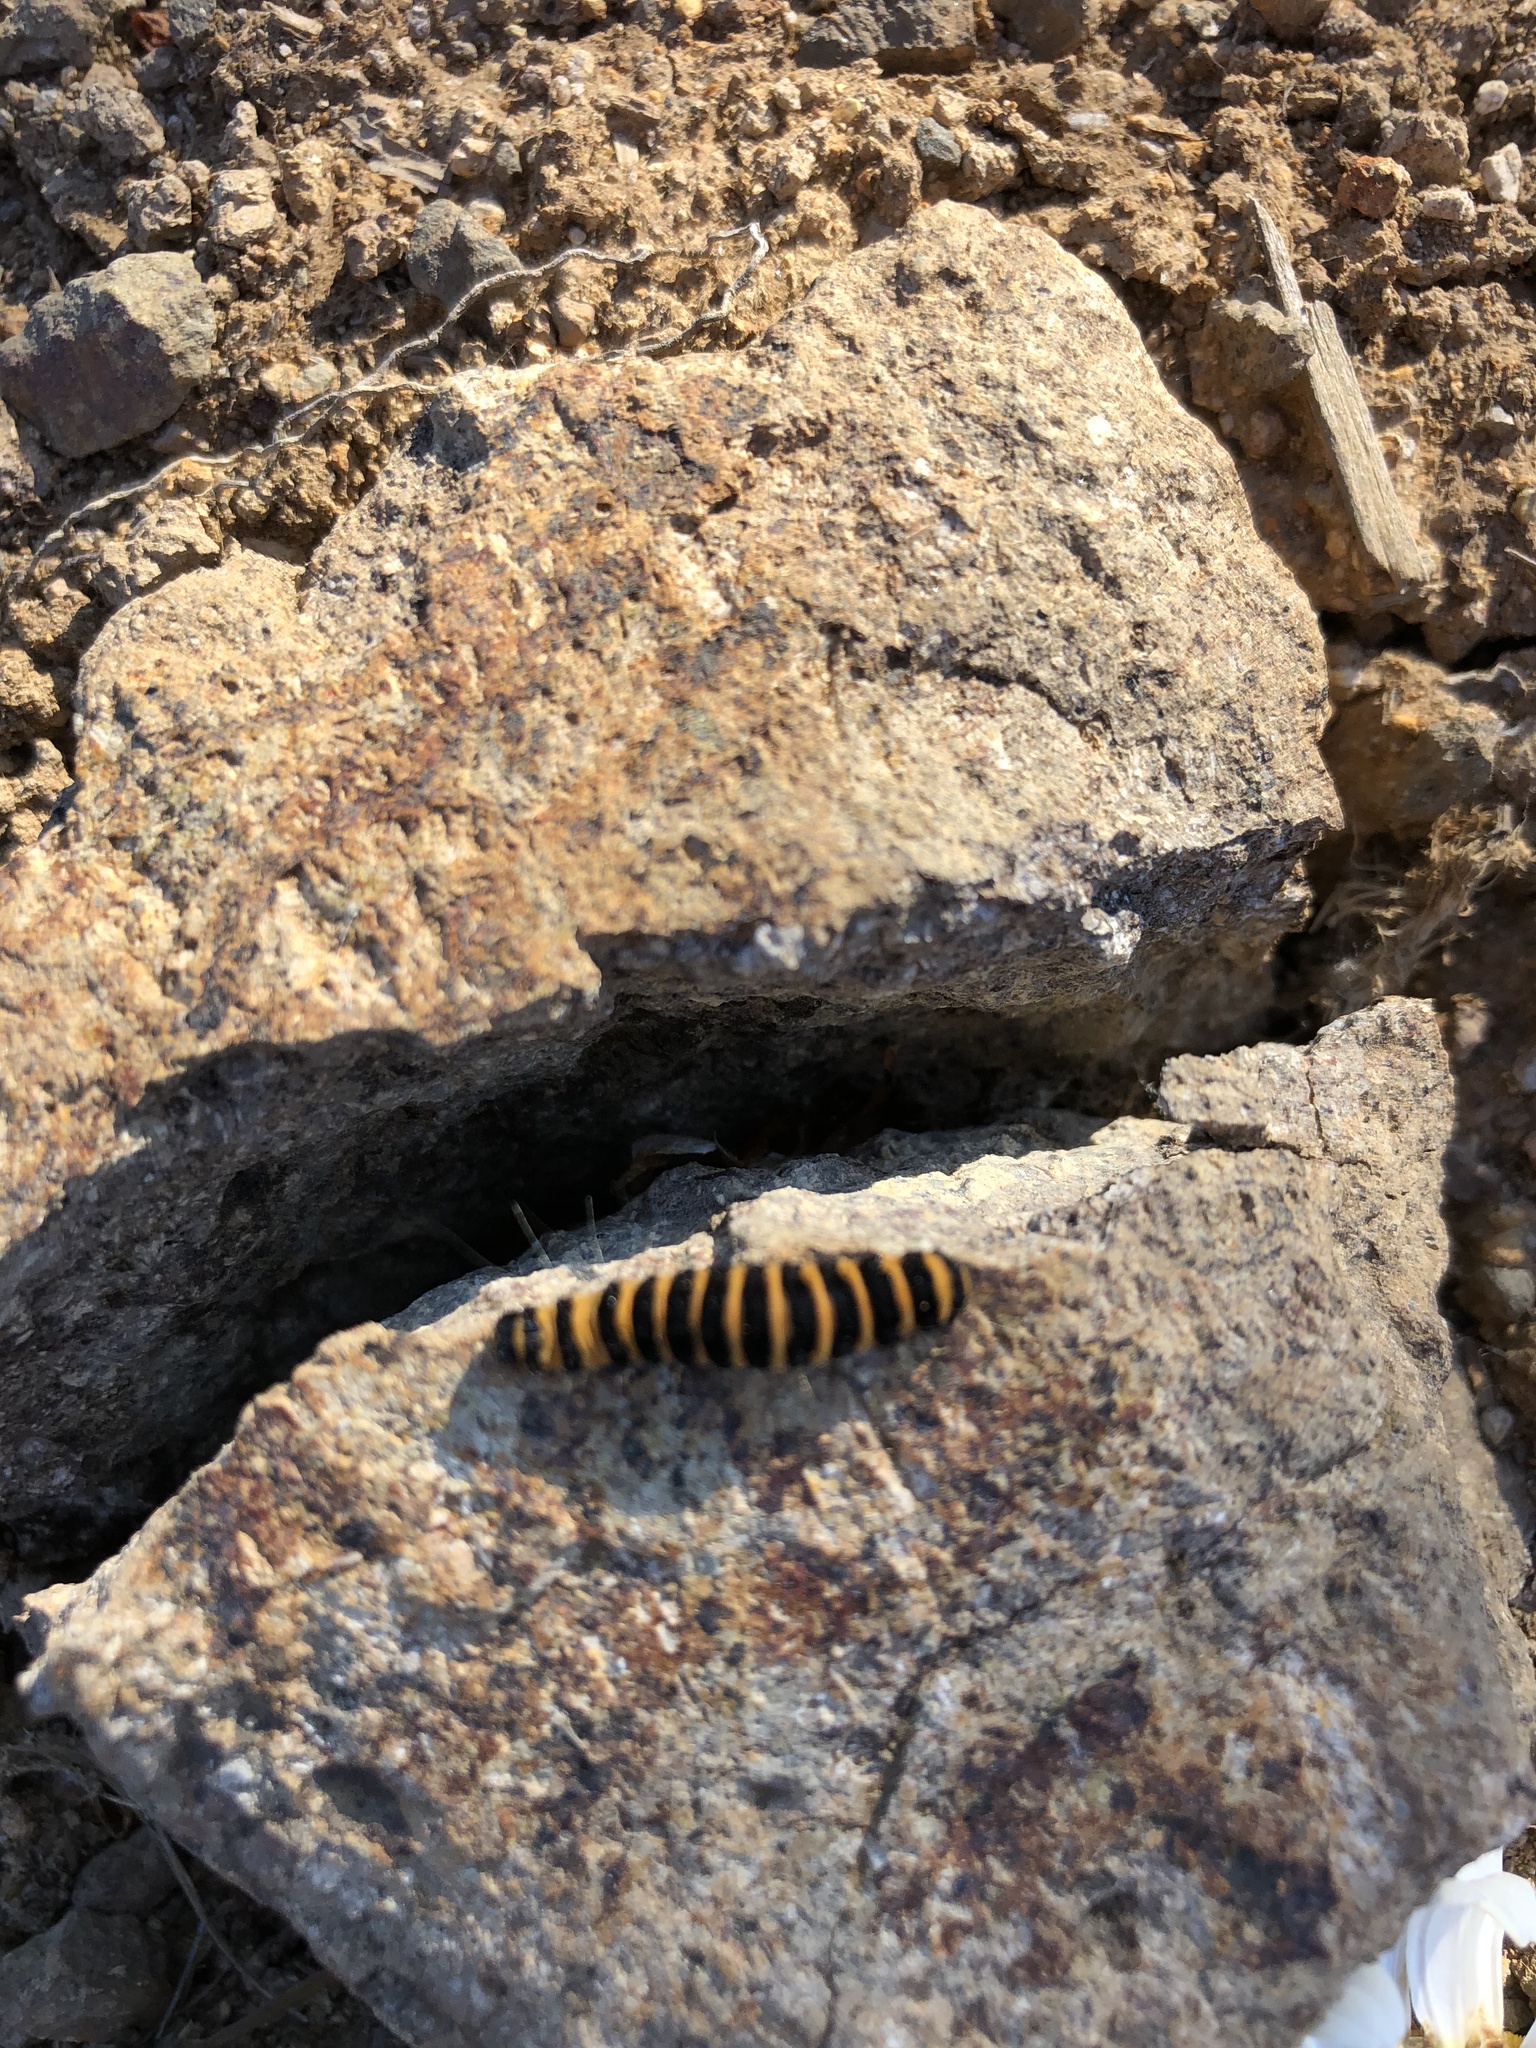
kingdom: Animalia
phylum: Arthropoda
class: Insecta
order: Lepidoptera
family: Erebidae
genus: Tyria
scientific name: Tyria jacobaeae
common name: Cinnabar
